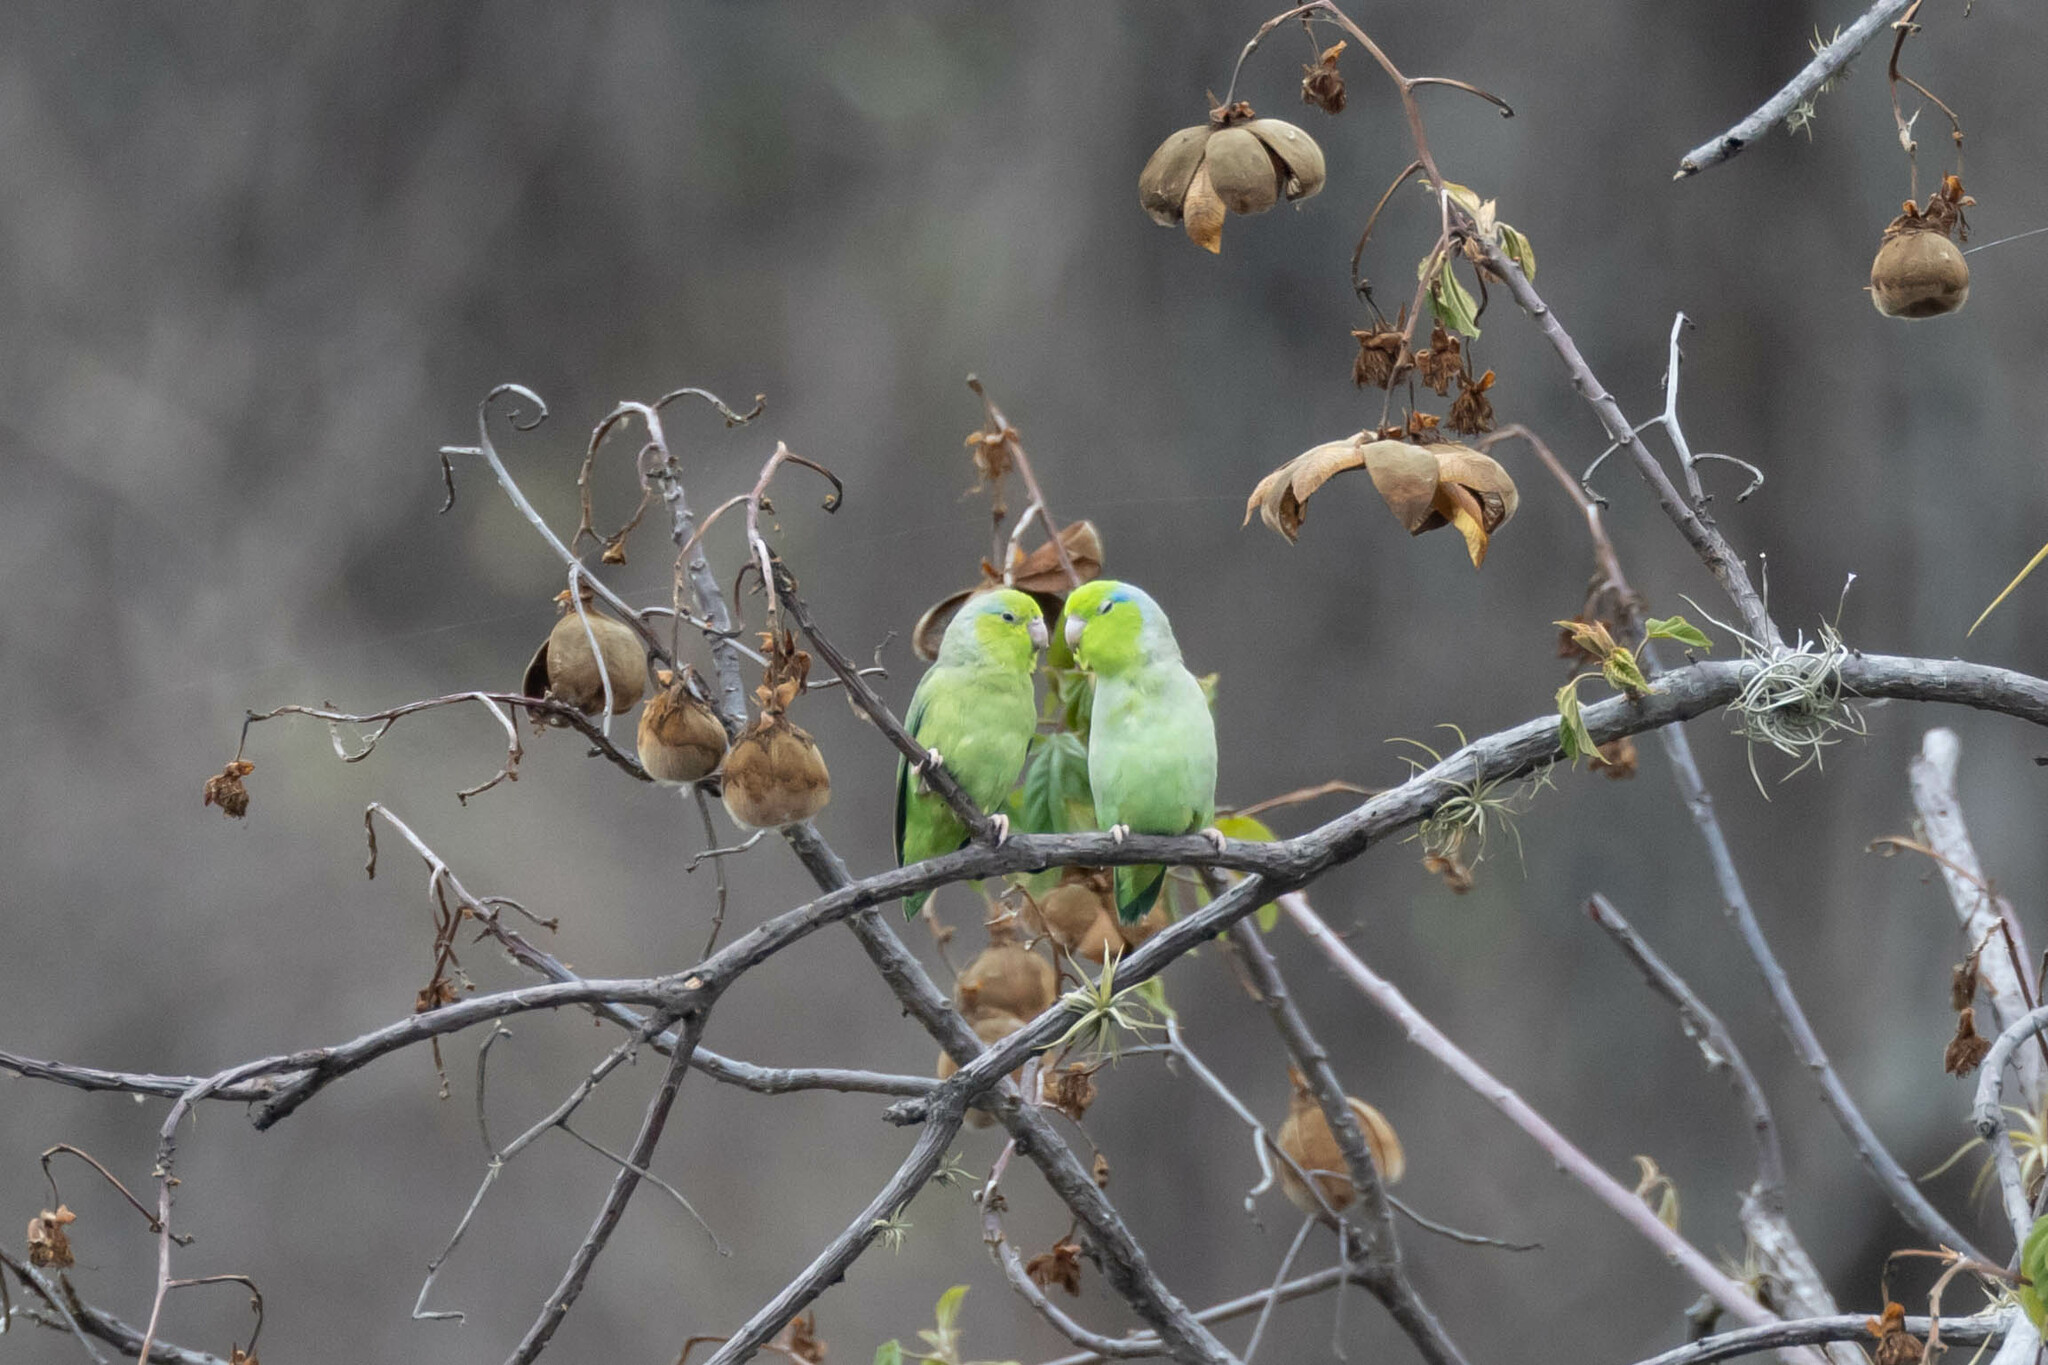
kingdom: Animalia
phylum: Chordata
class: Aves
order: Psittaciformes
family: Psittacidae
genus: Forpus
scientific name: Forpus coelestis
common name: Pacific parrotlet
